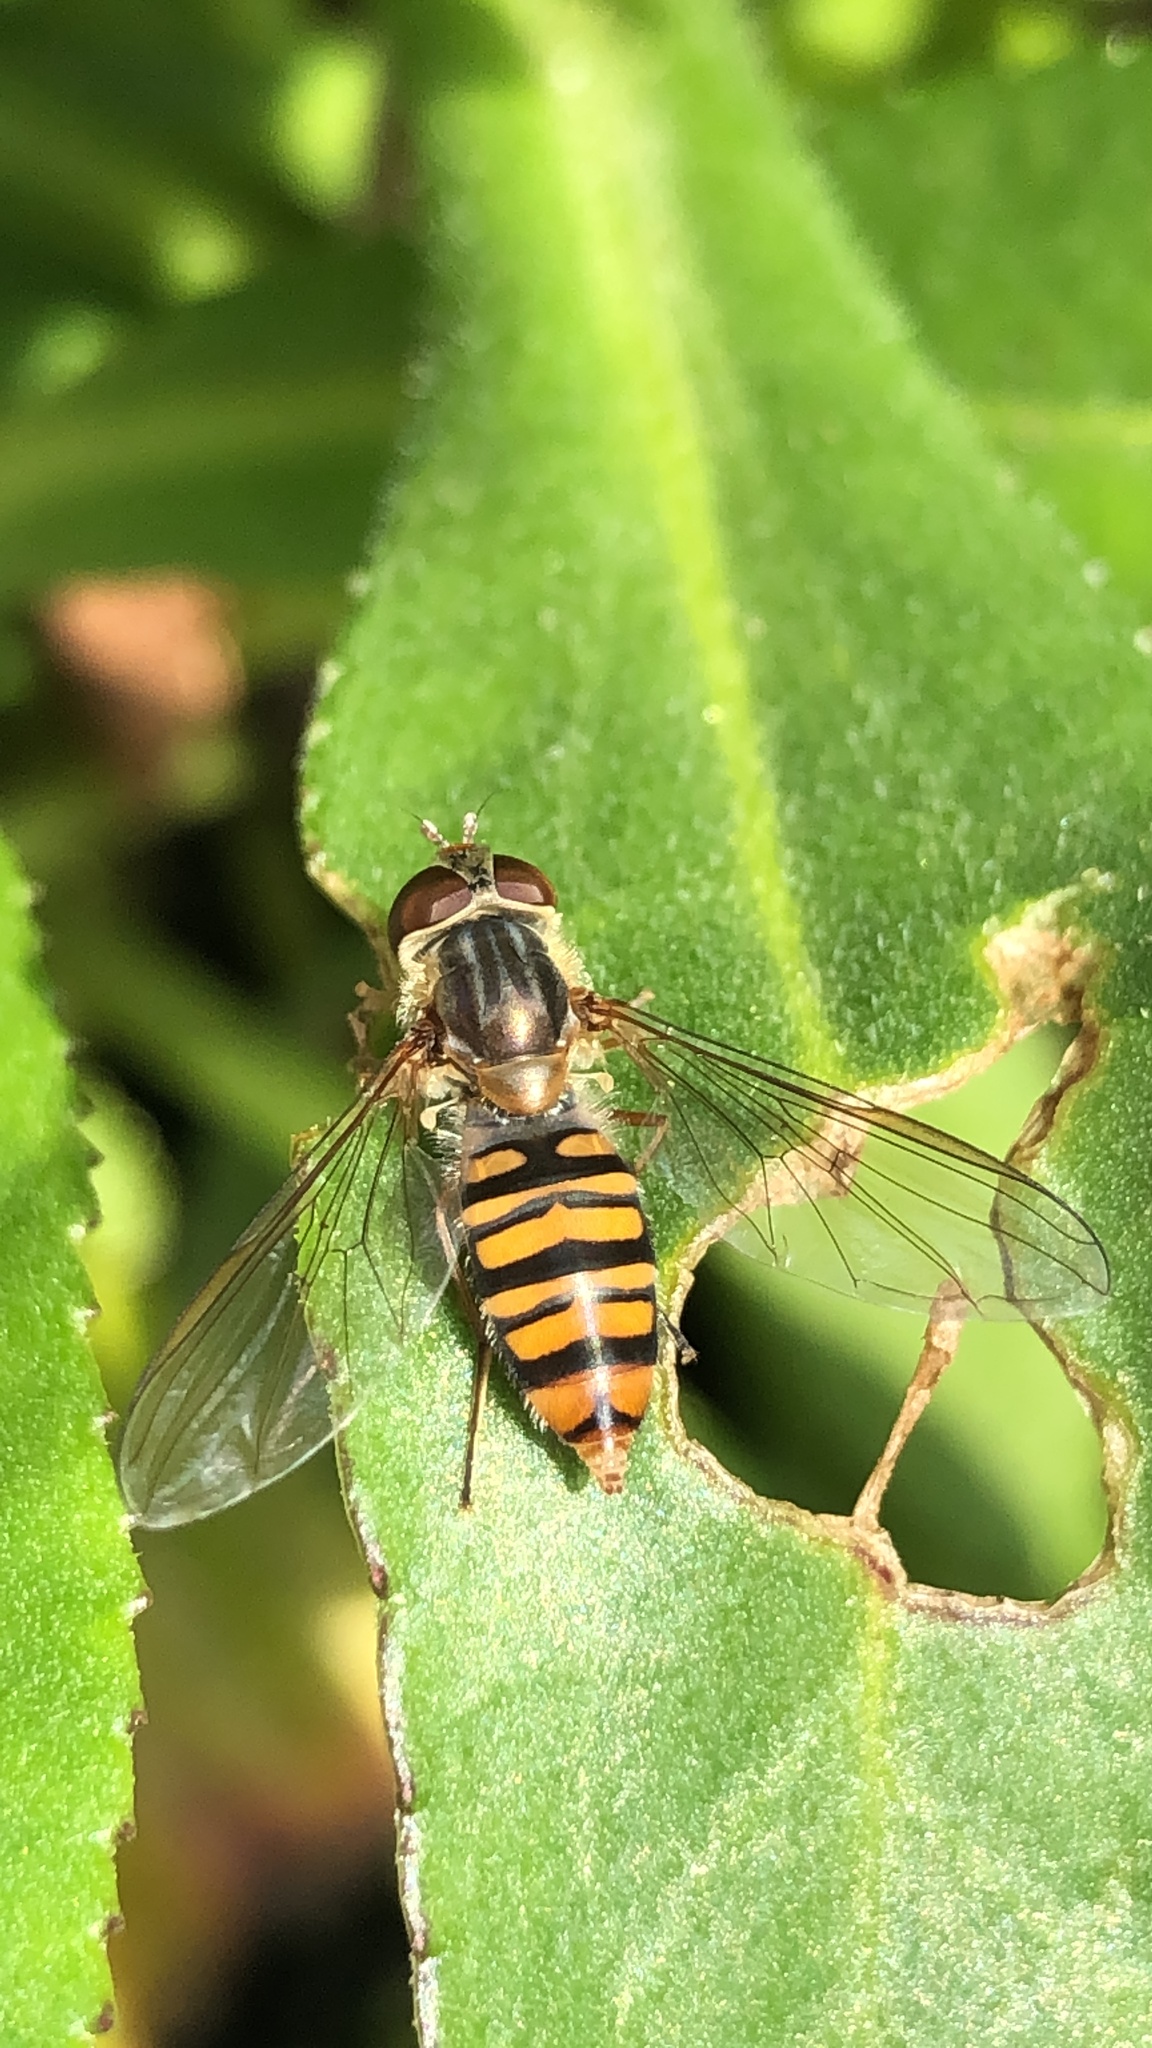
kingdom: Animalia
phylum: Arthropoda
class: Insecta
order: Diptera
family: Syrphidae
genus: Episyrphus
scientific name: Episyrphus balteatus
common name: Marmalade hoverfly
